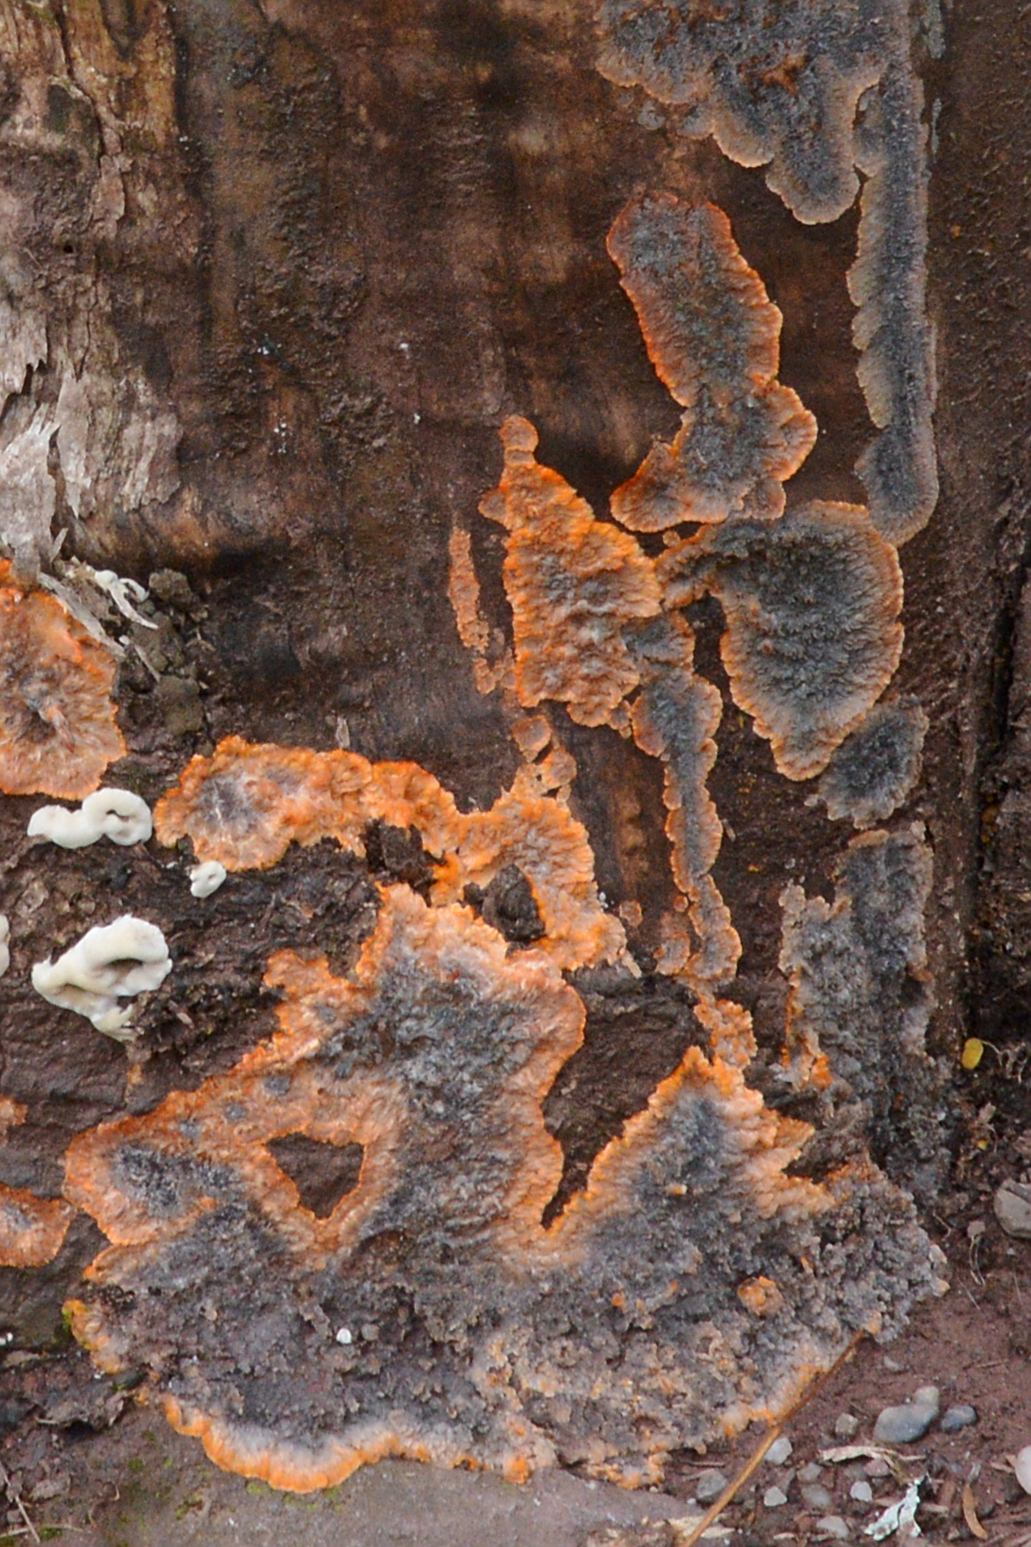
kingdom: Fungi
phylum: Basidiomycota
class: Agaricomycetes
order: Polyporales
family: Meruliaceae
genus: Phlebia
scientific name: Phlebia radiata
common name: Wrinkled crust
